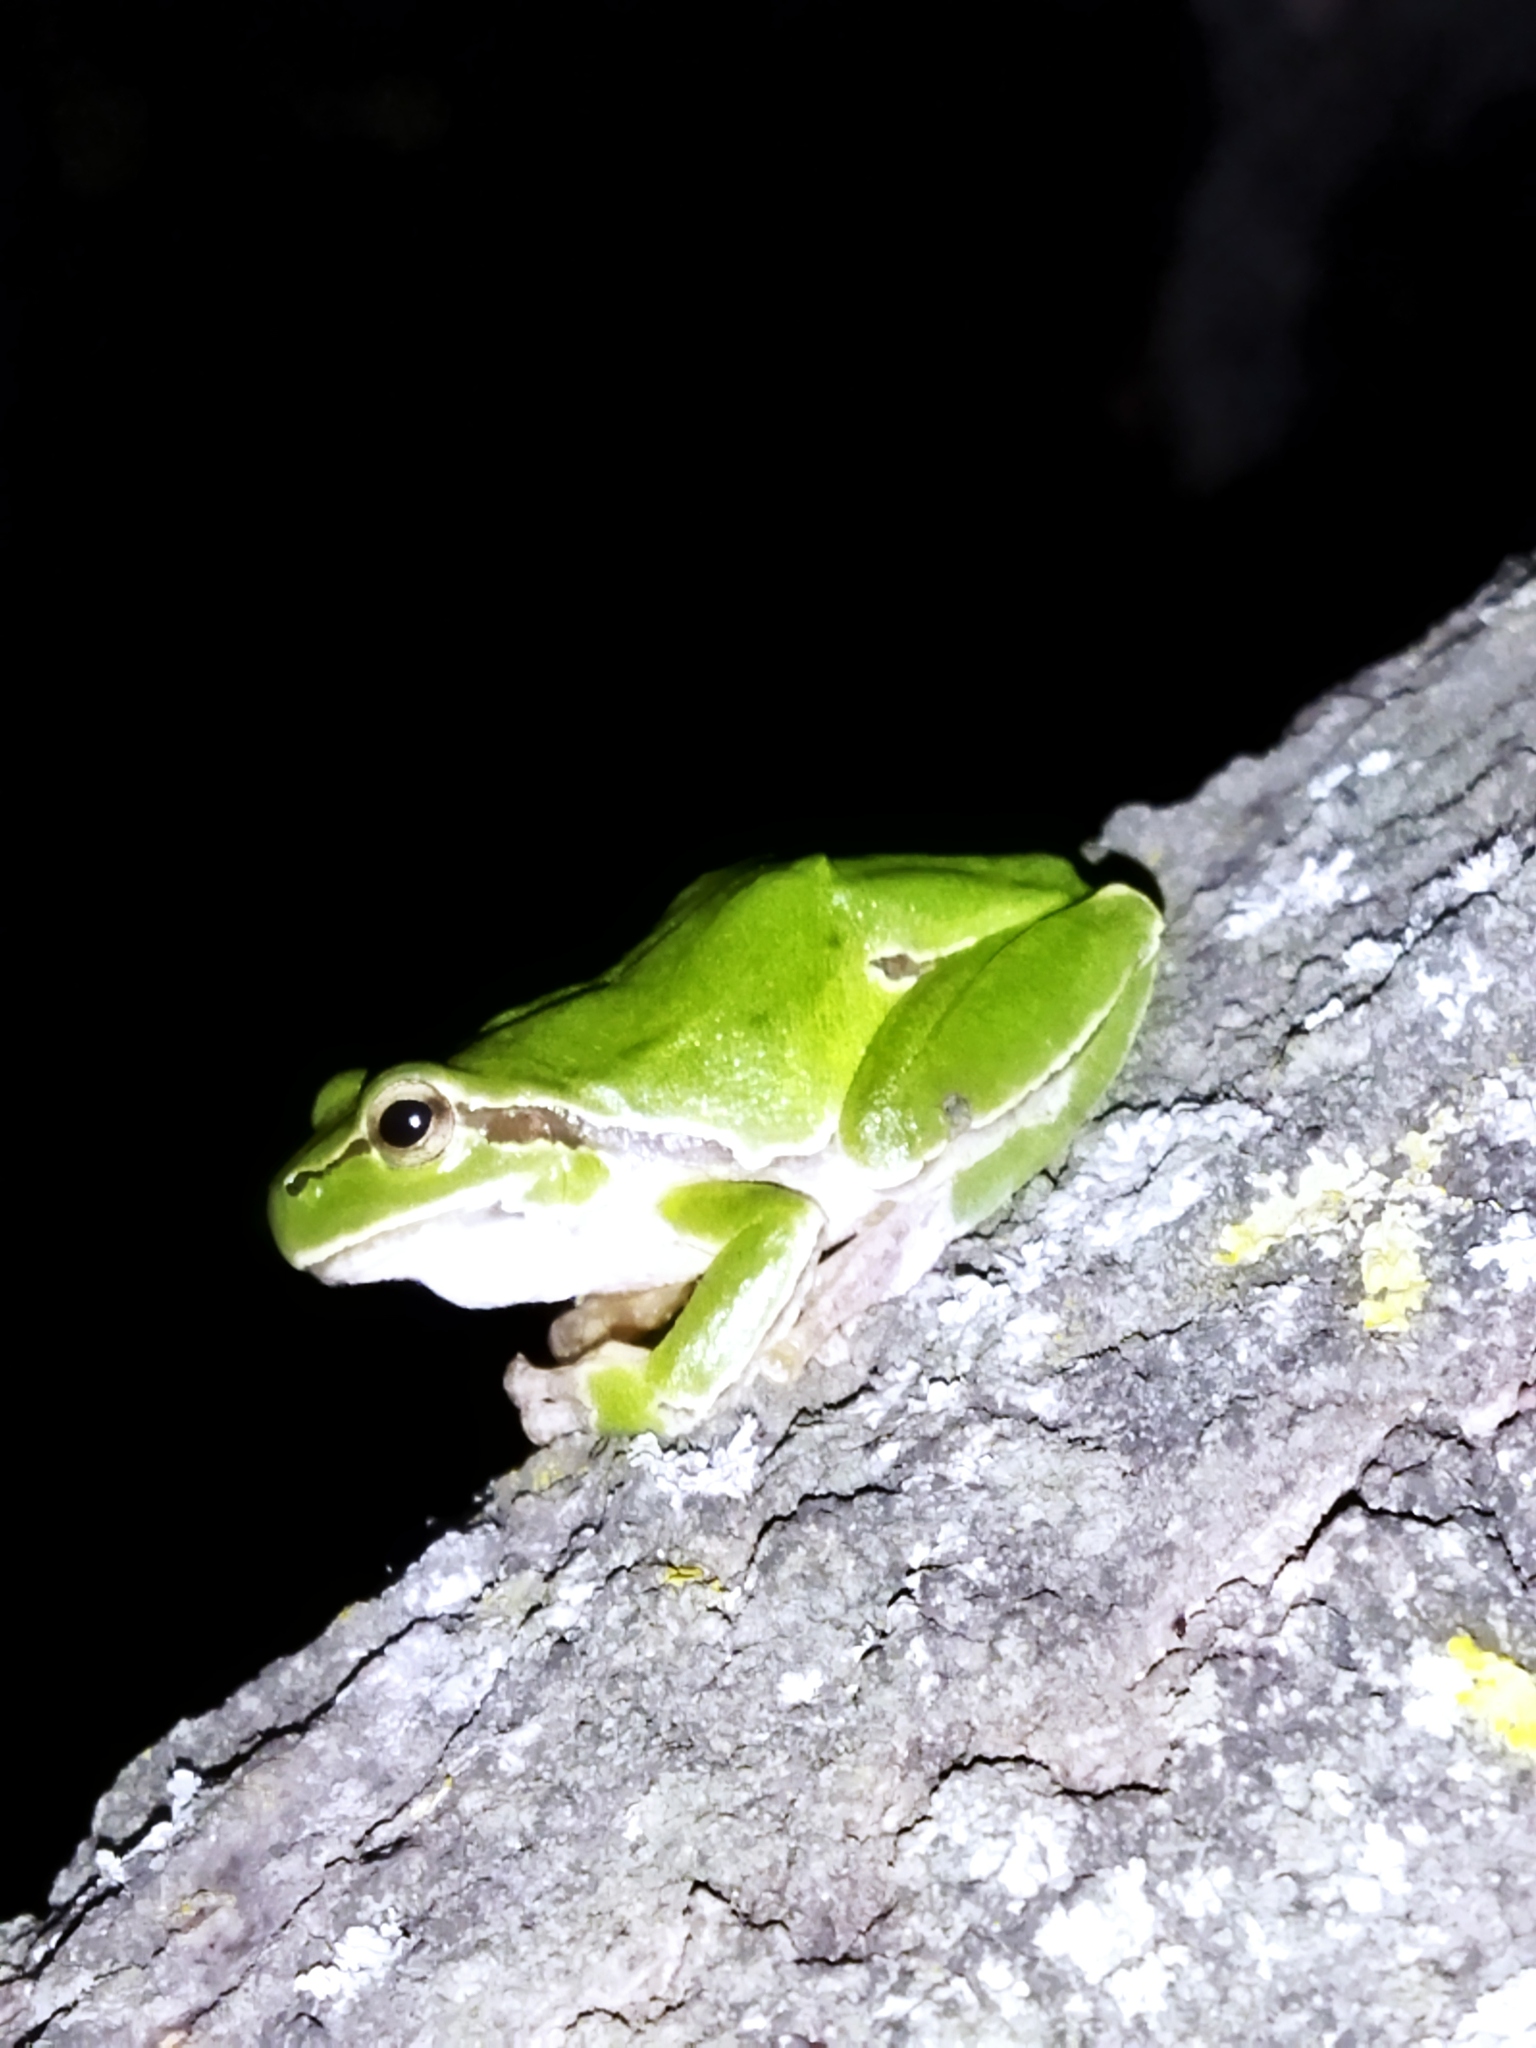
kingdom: Animalia
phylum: Chordata
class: Amphibia
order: Anura
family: Hylidae
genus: Hyla
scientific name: Hyla orientalis
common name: Caucasian treefrog
